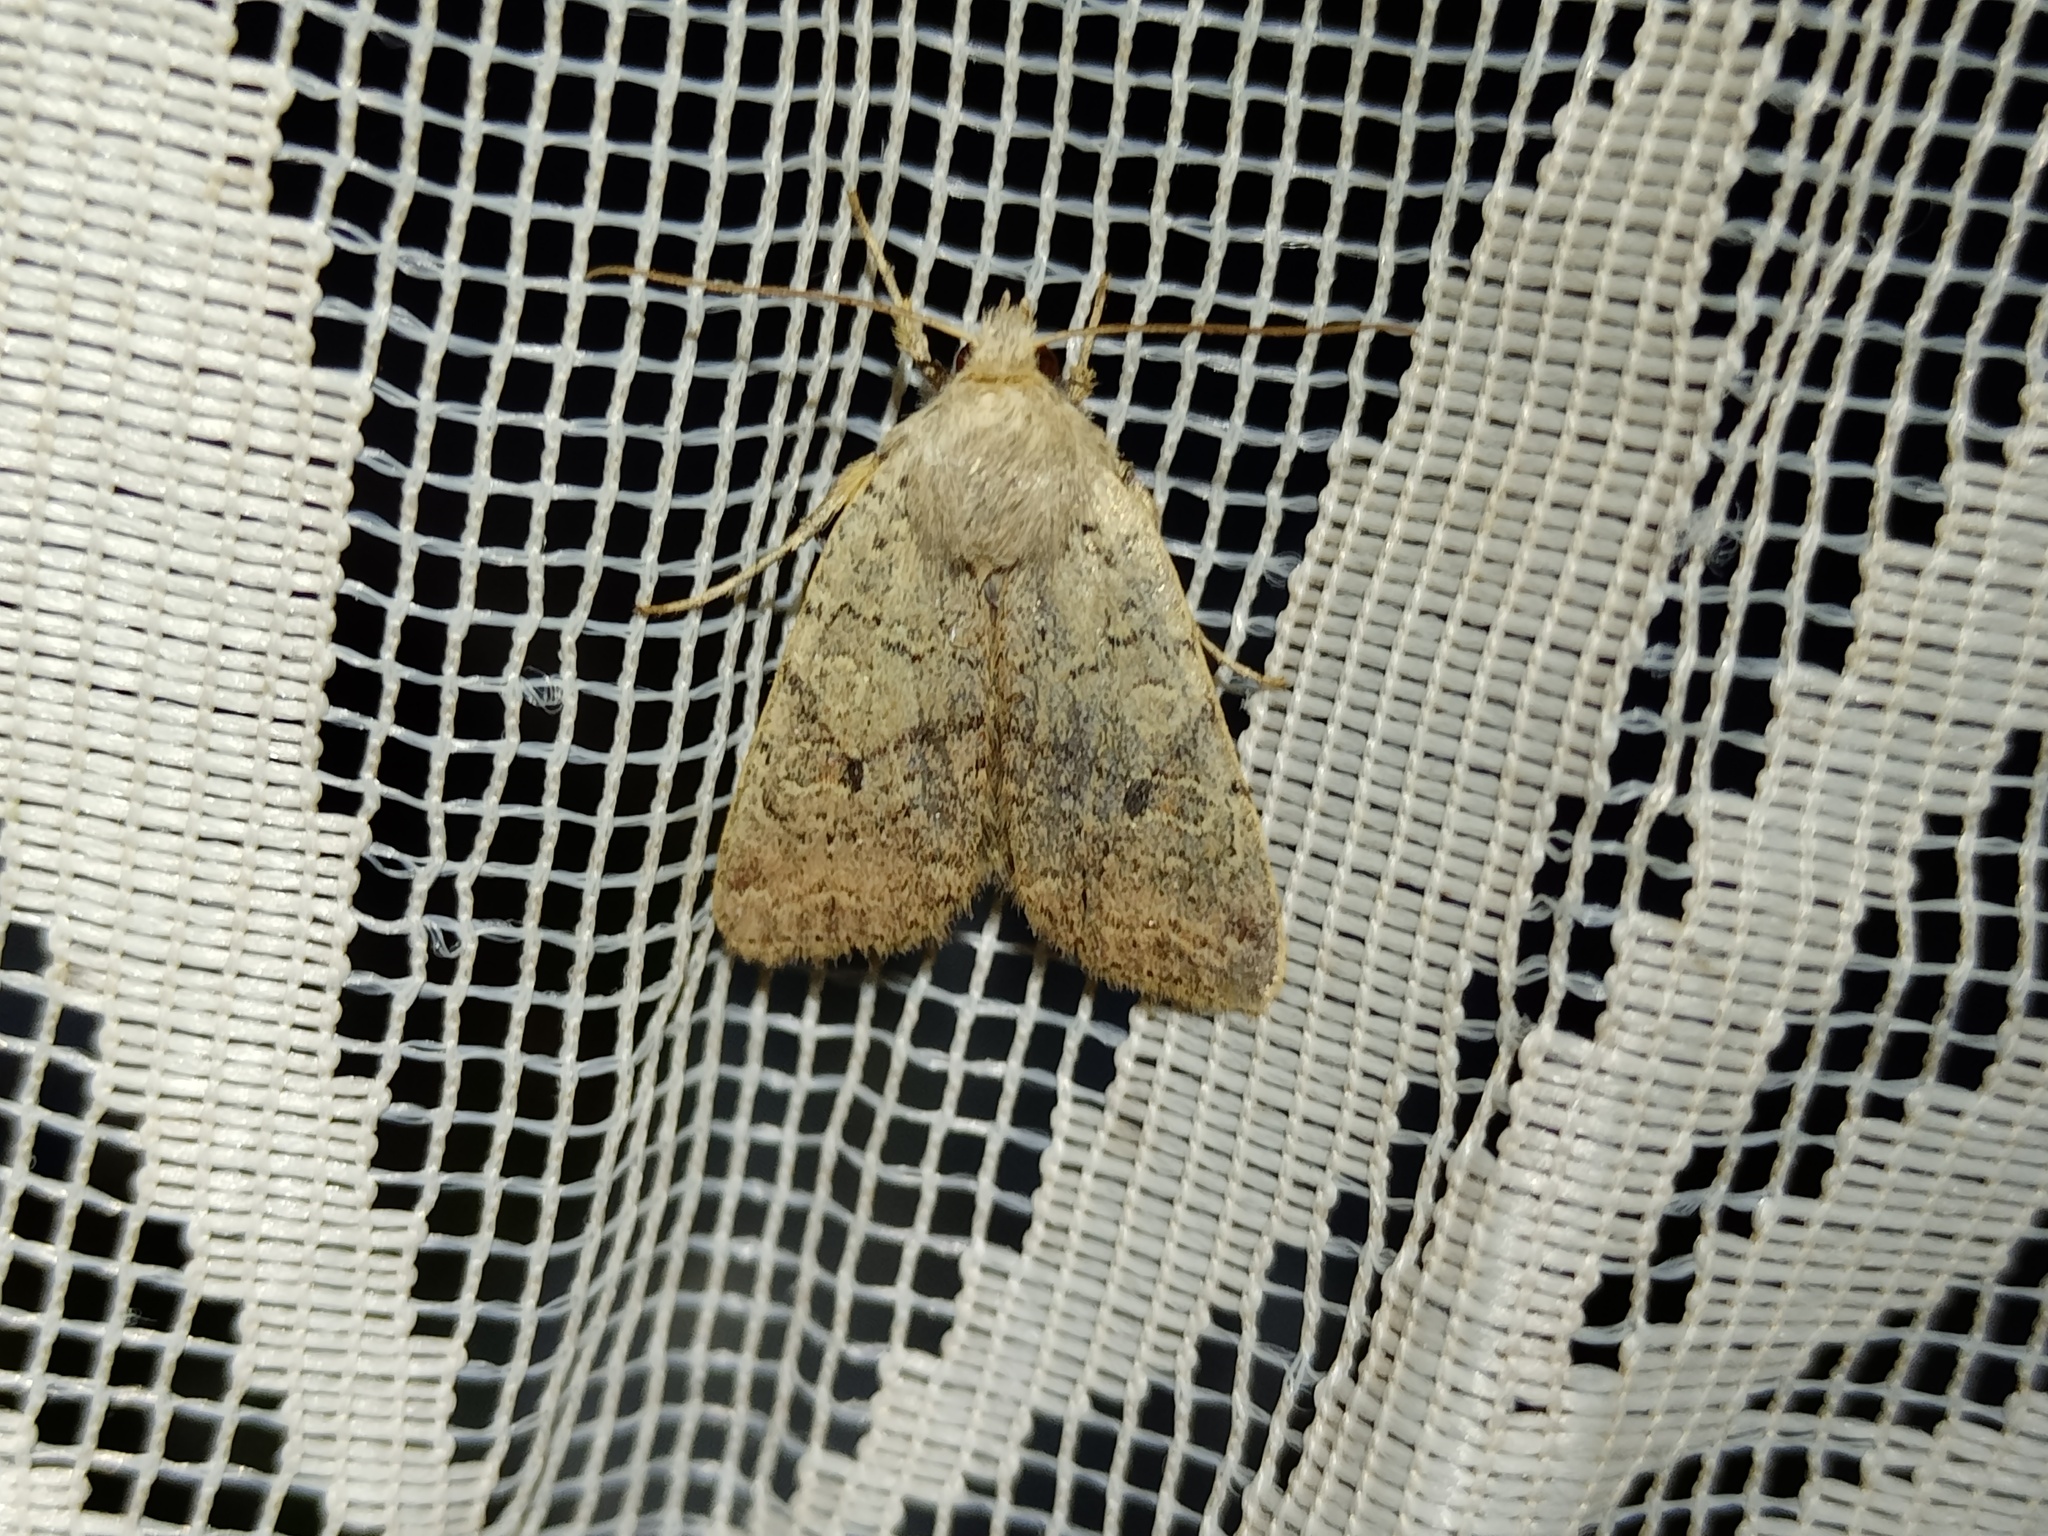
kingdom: Animalia
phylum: Arthropoda
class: Insecta
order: Lepidoptera
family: Noctuidae
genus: Agrochola
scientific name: Agrochola laevis
